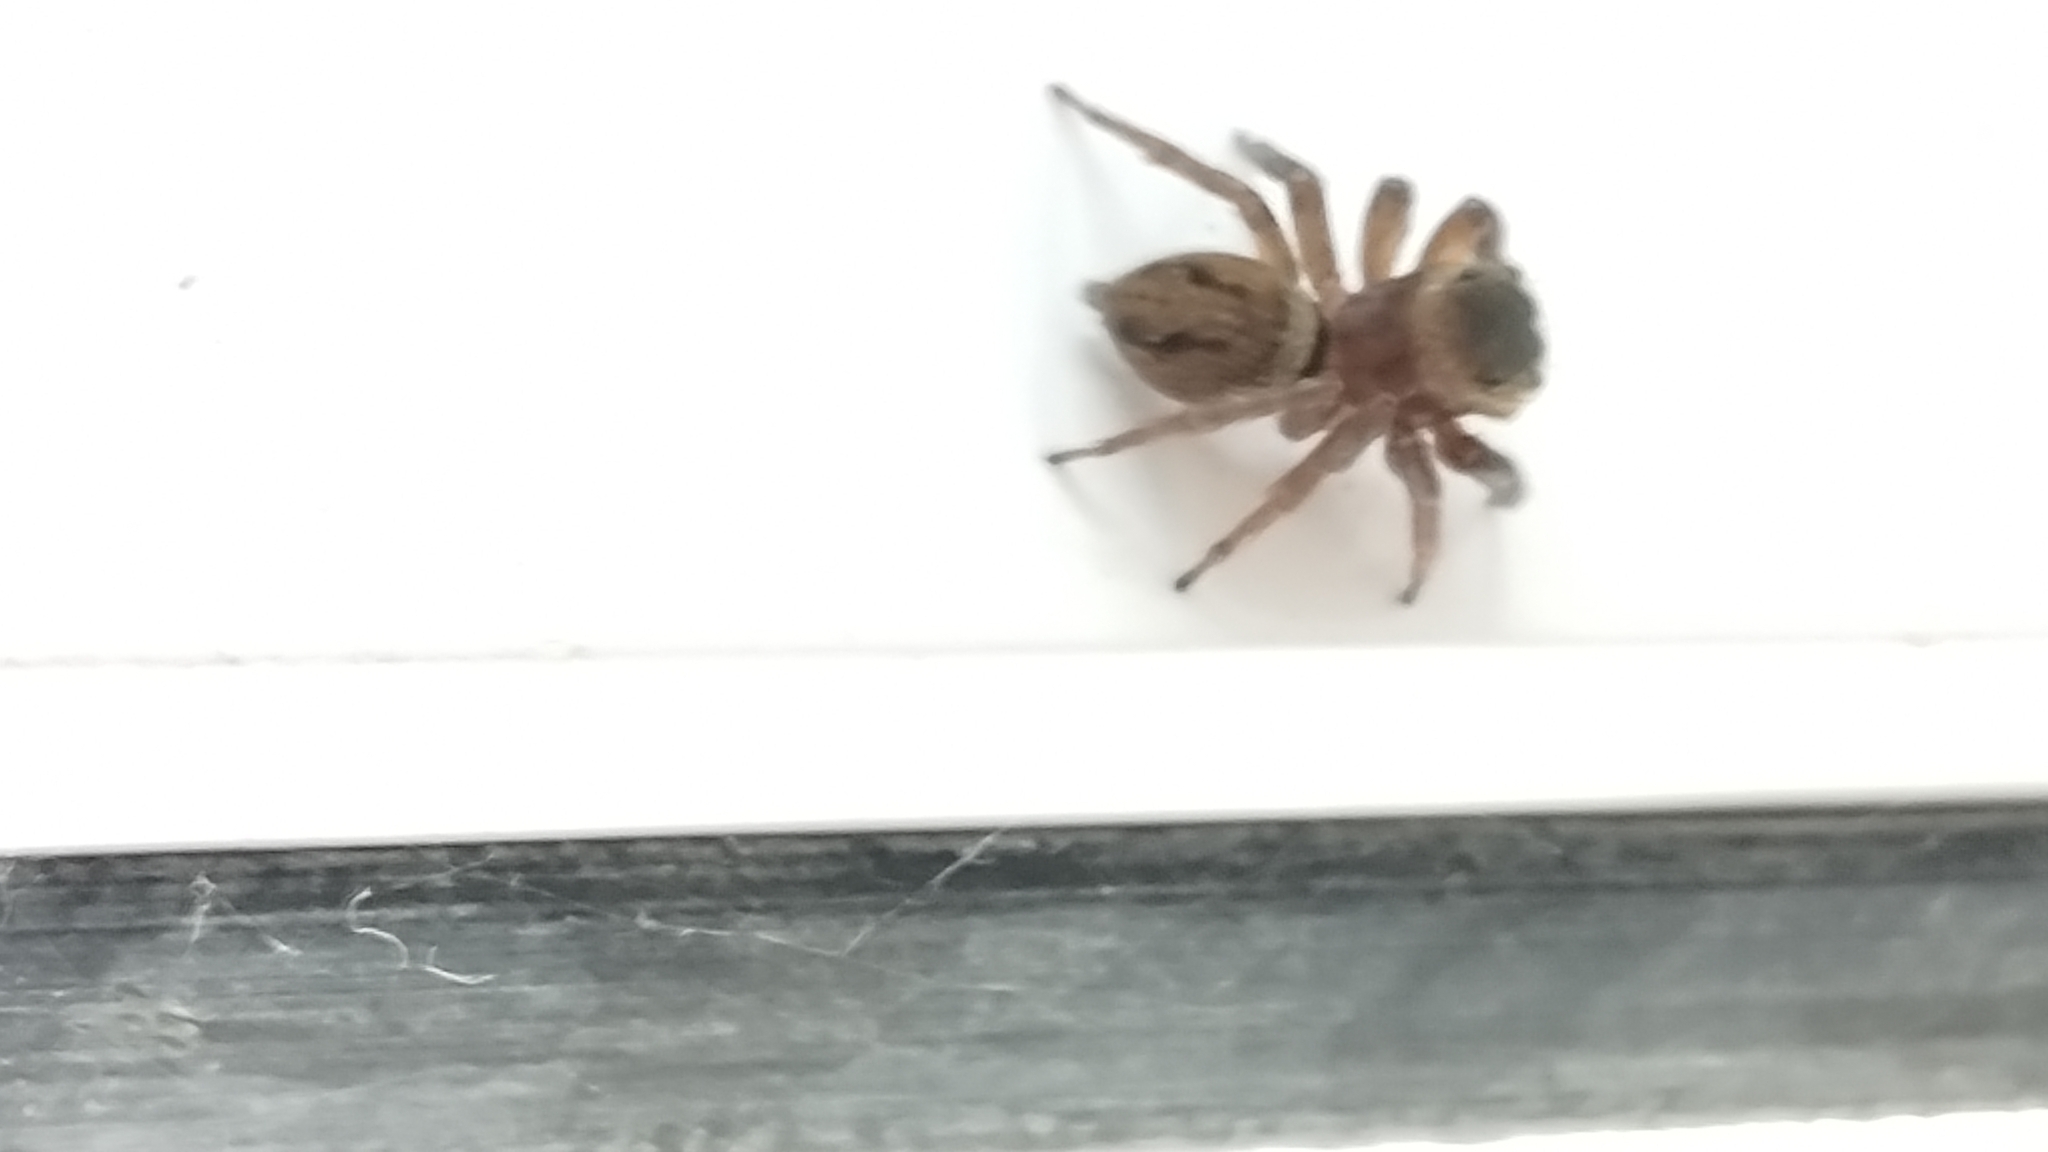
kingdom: Animalia
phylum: Arthropoda
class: Arachnida
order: Araneae
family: Salticidae
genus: Hasarius
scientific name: Hasarius adansoni
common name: Jumping spider
